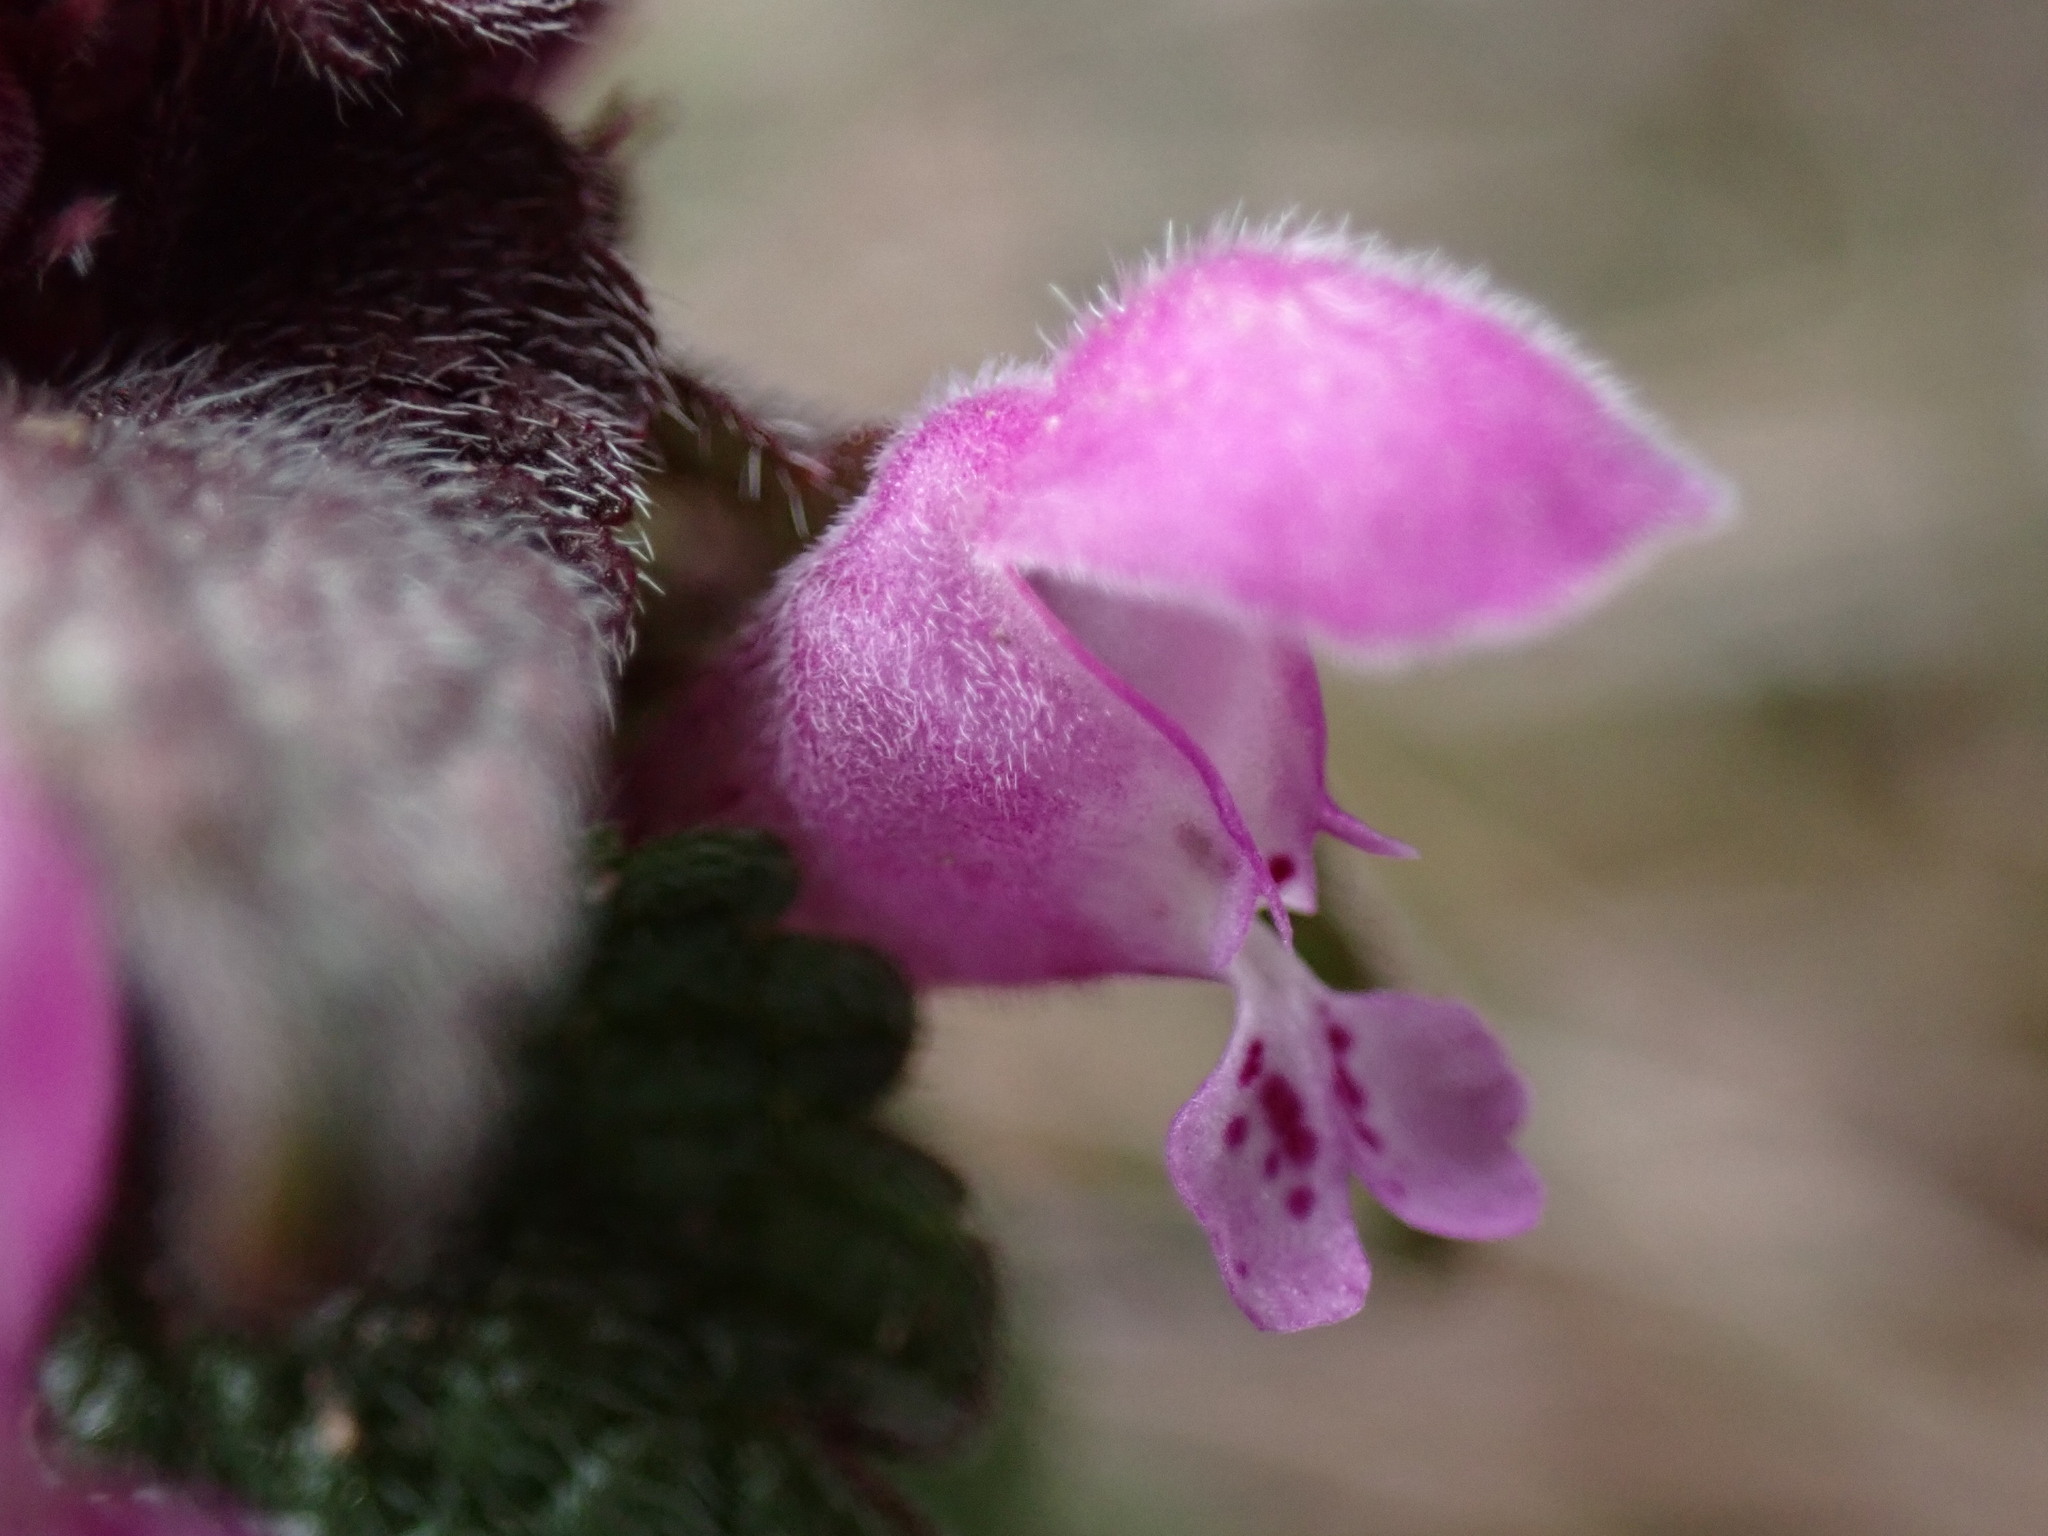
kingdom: Plantae
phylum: Tracheophyta
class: Magnoliopsida
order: Lamiales
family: Lamiaceae
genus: Lamium
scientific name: Lamium purpureum
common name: Red dead-nettle
